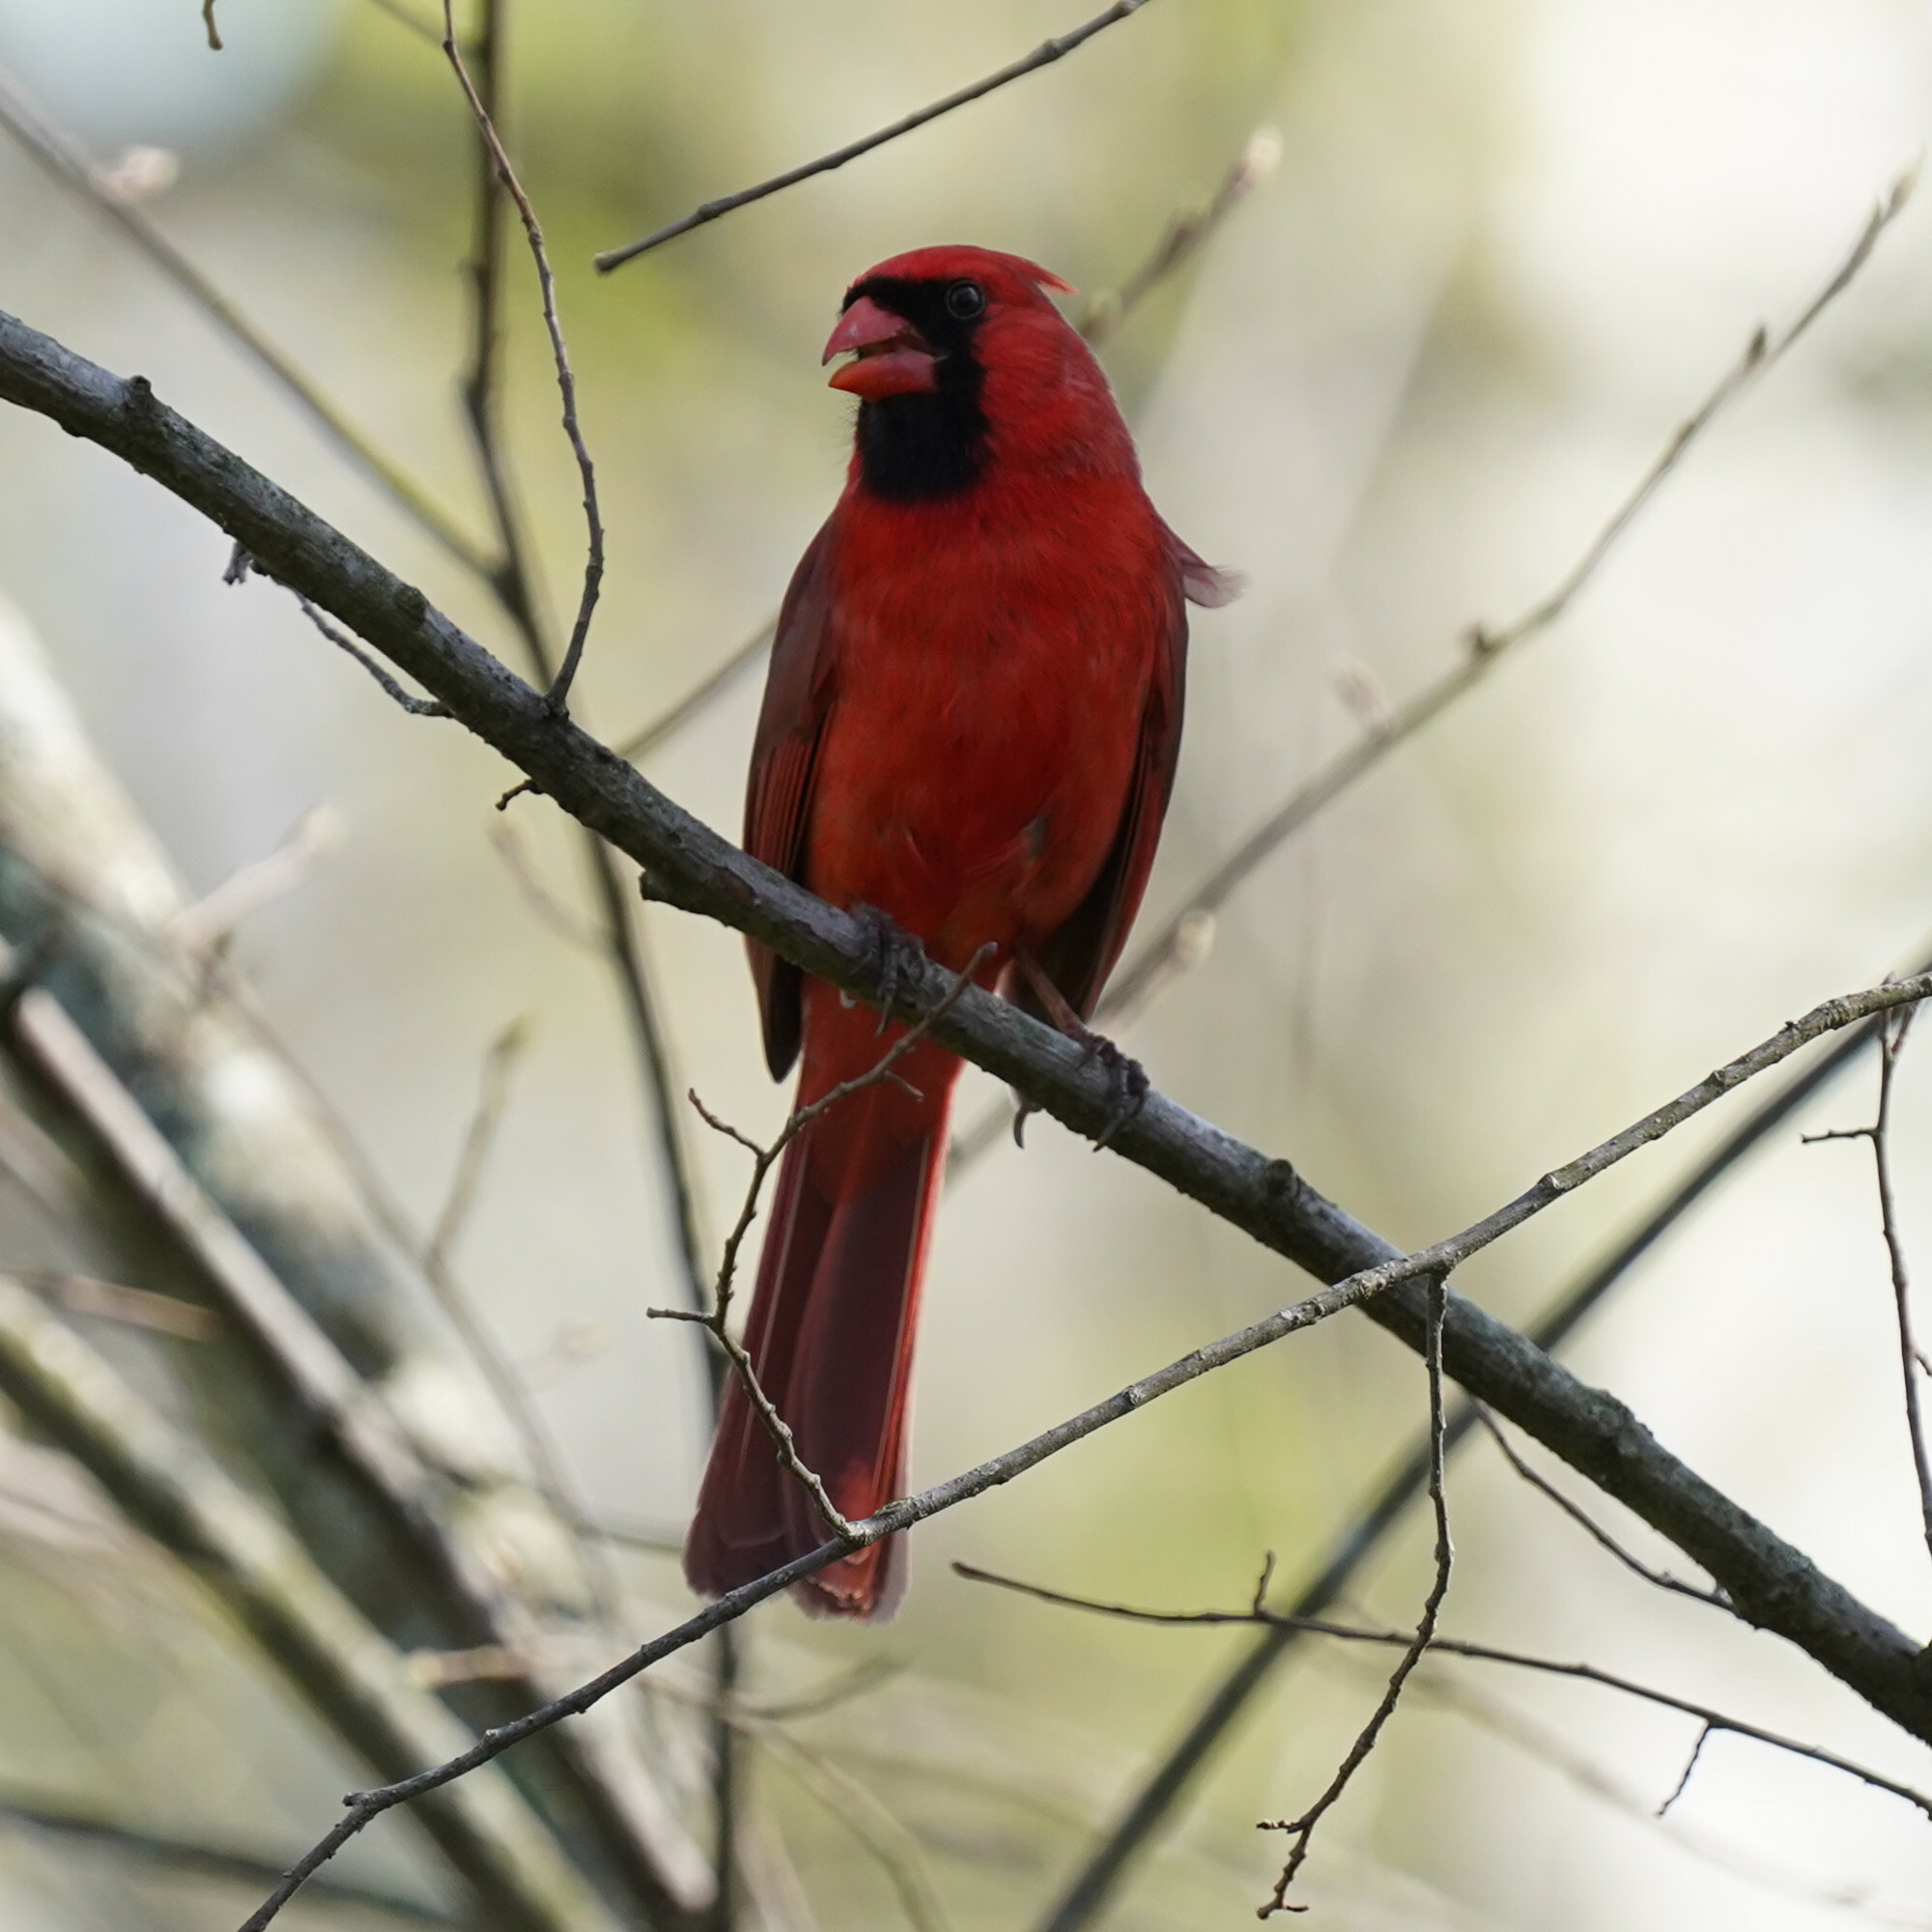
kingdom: Animalia
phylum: Chordata
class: Aves
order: Passeriformes
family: Cardinalidae
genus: Cardinalis
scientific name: Cardinalis cardinalis
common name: Northern cardinal
